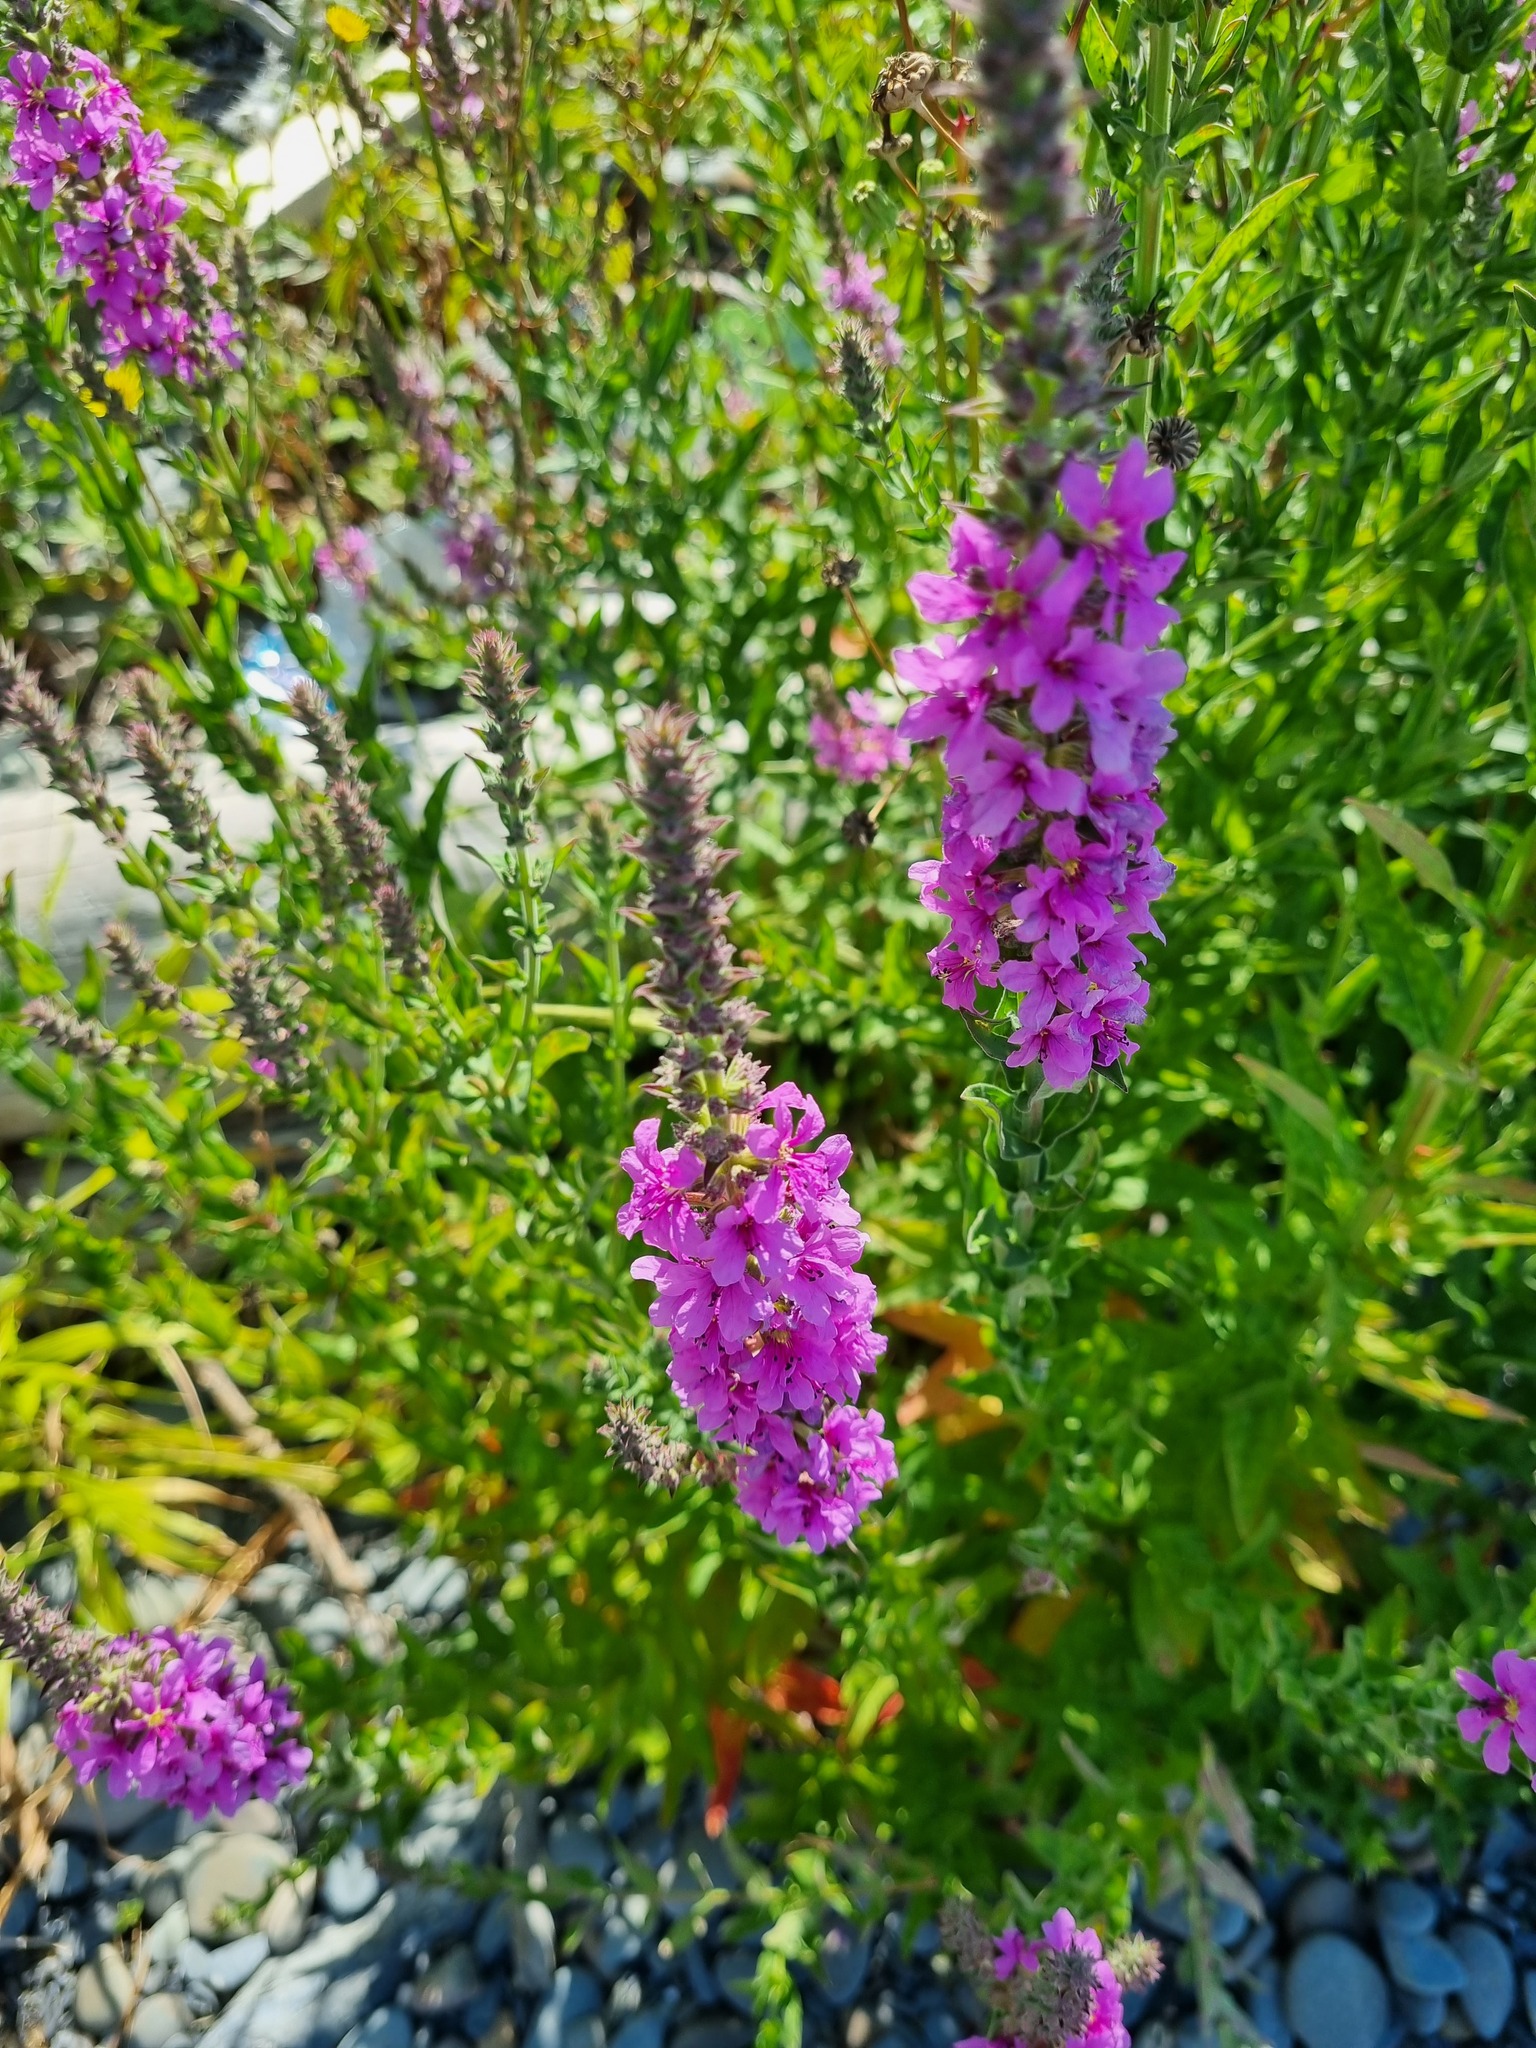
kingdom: Plantae
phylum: Tracheophyta
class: Magnoliopsida
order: Myrtales
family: Lythraceae
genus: Lythrum
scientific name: Lythrum salicaria
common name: Purple loosestrife
